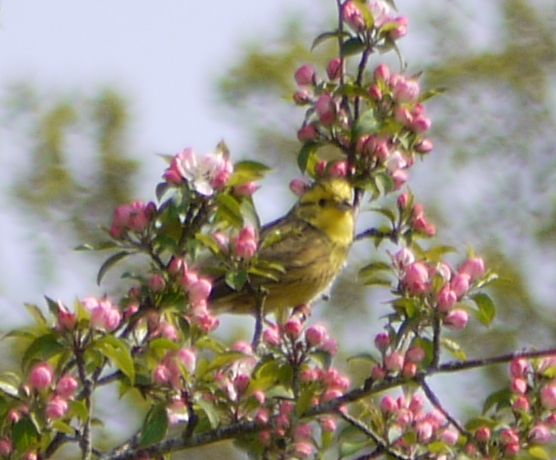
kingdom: Animalia
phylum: Chordata
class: Aves
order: Passeriformes
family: Emberizidae
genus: Emberiza
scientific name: Emberiza citrinella
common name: Yellowhammer
